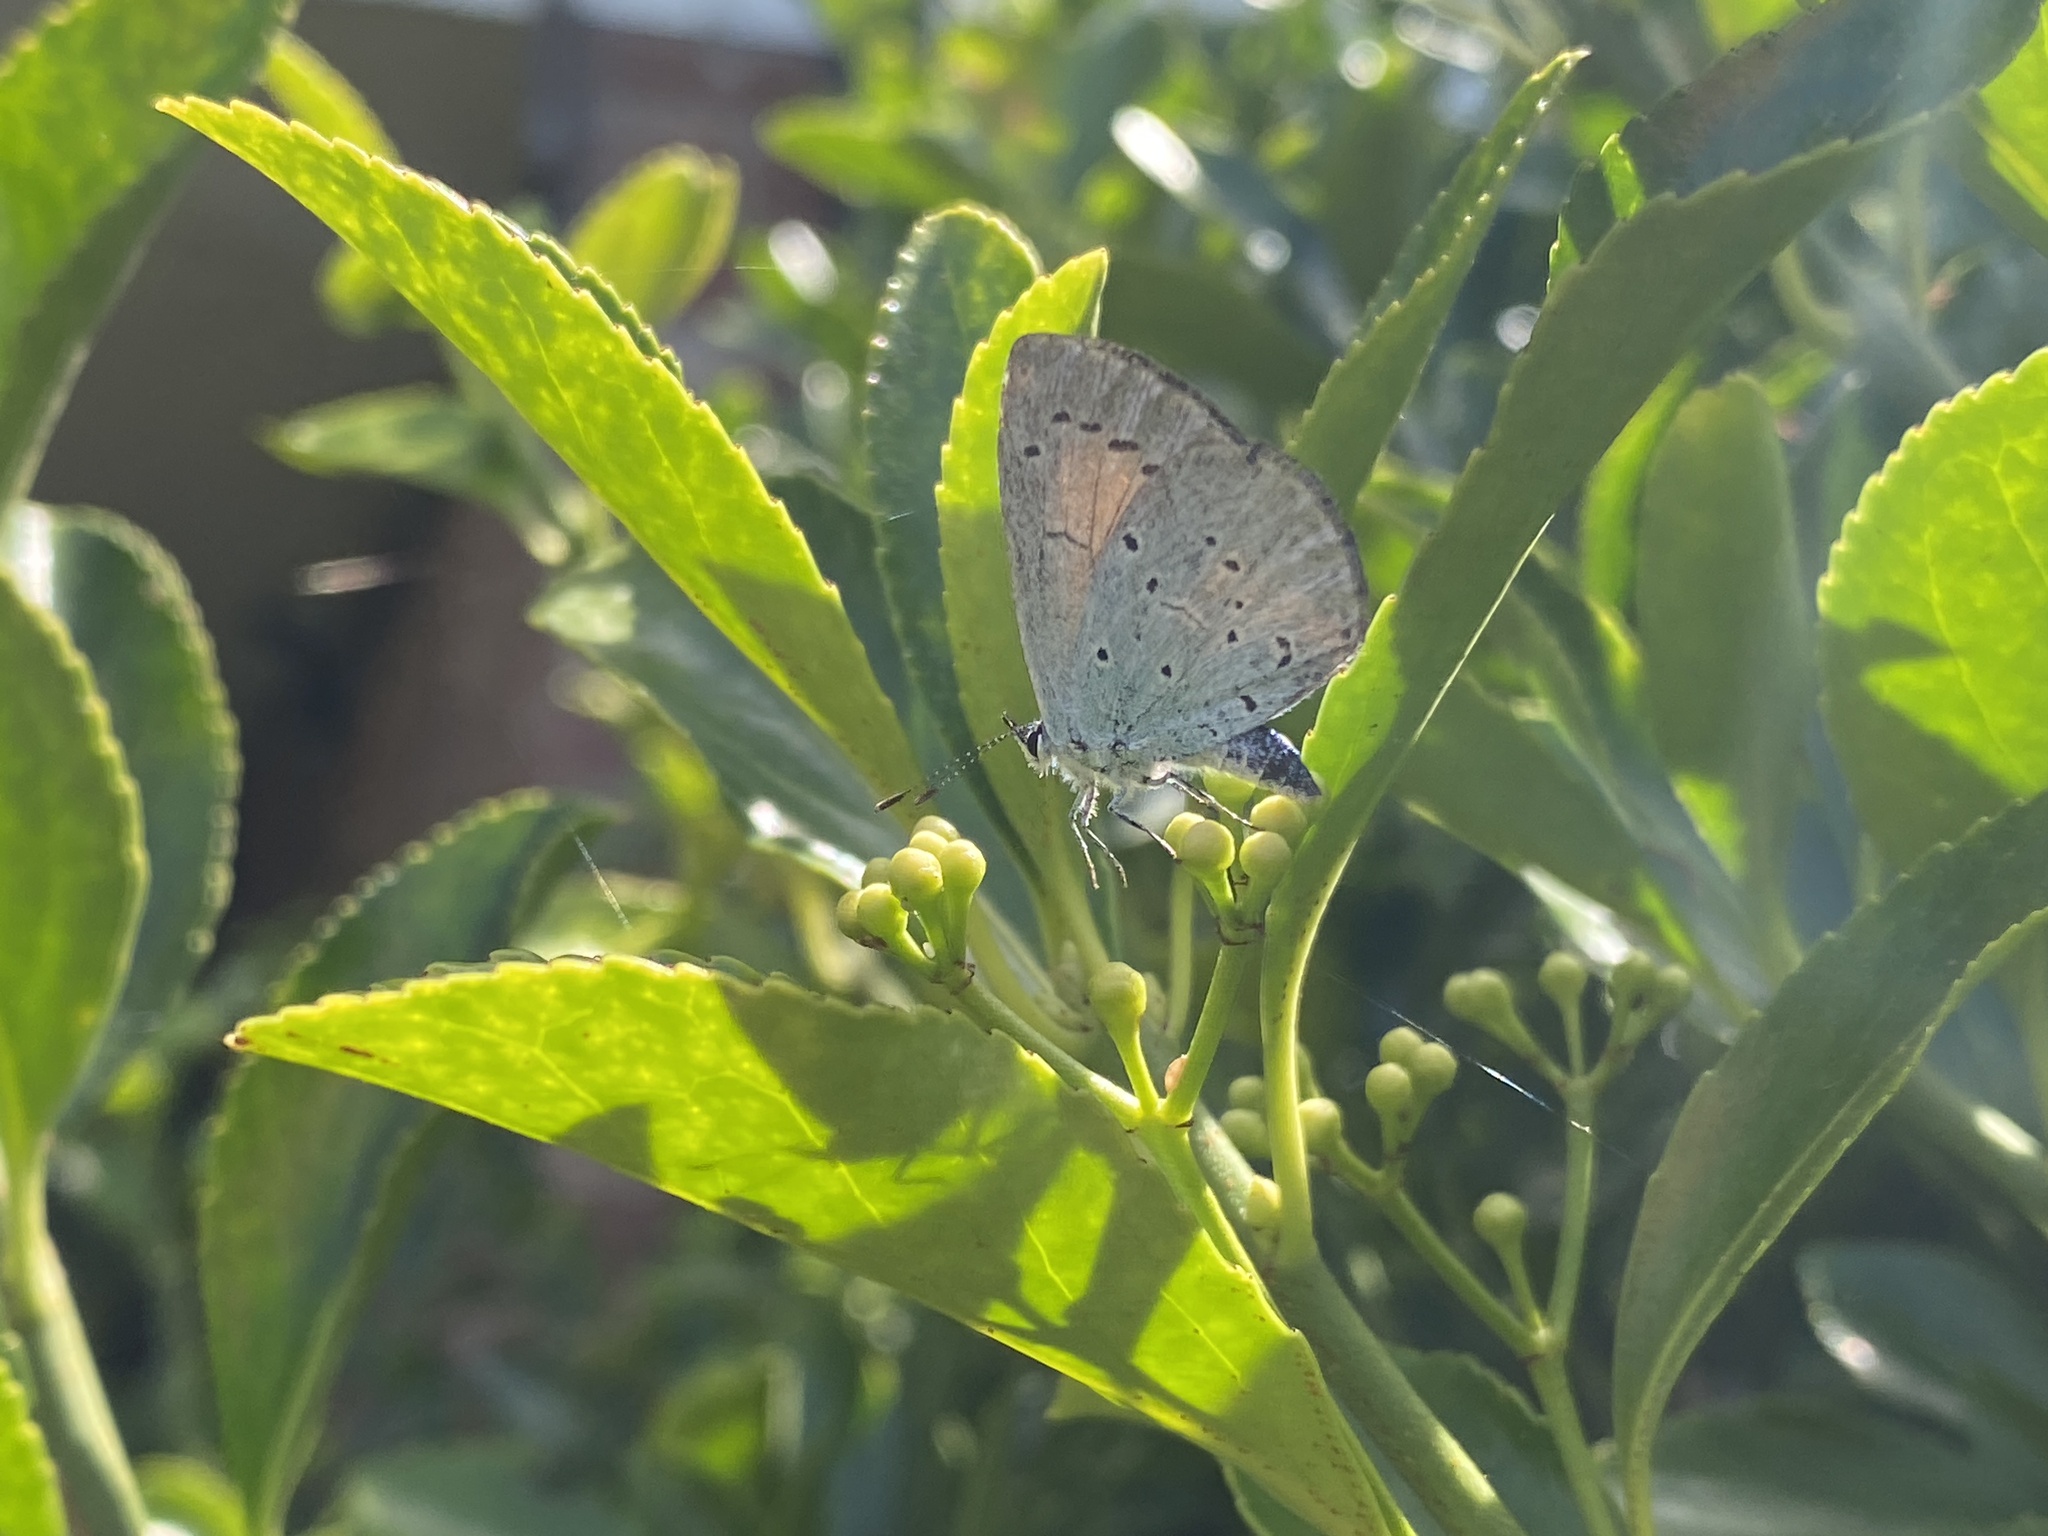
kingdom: Animalia
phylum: Arthropoda
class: Insecta
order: Lepidoptera
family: Lycaenidae
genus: Celastrina
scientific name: Celastrina argiolus
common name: Holly blue
